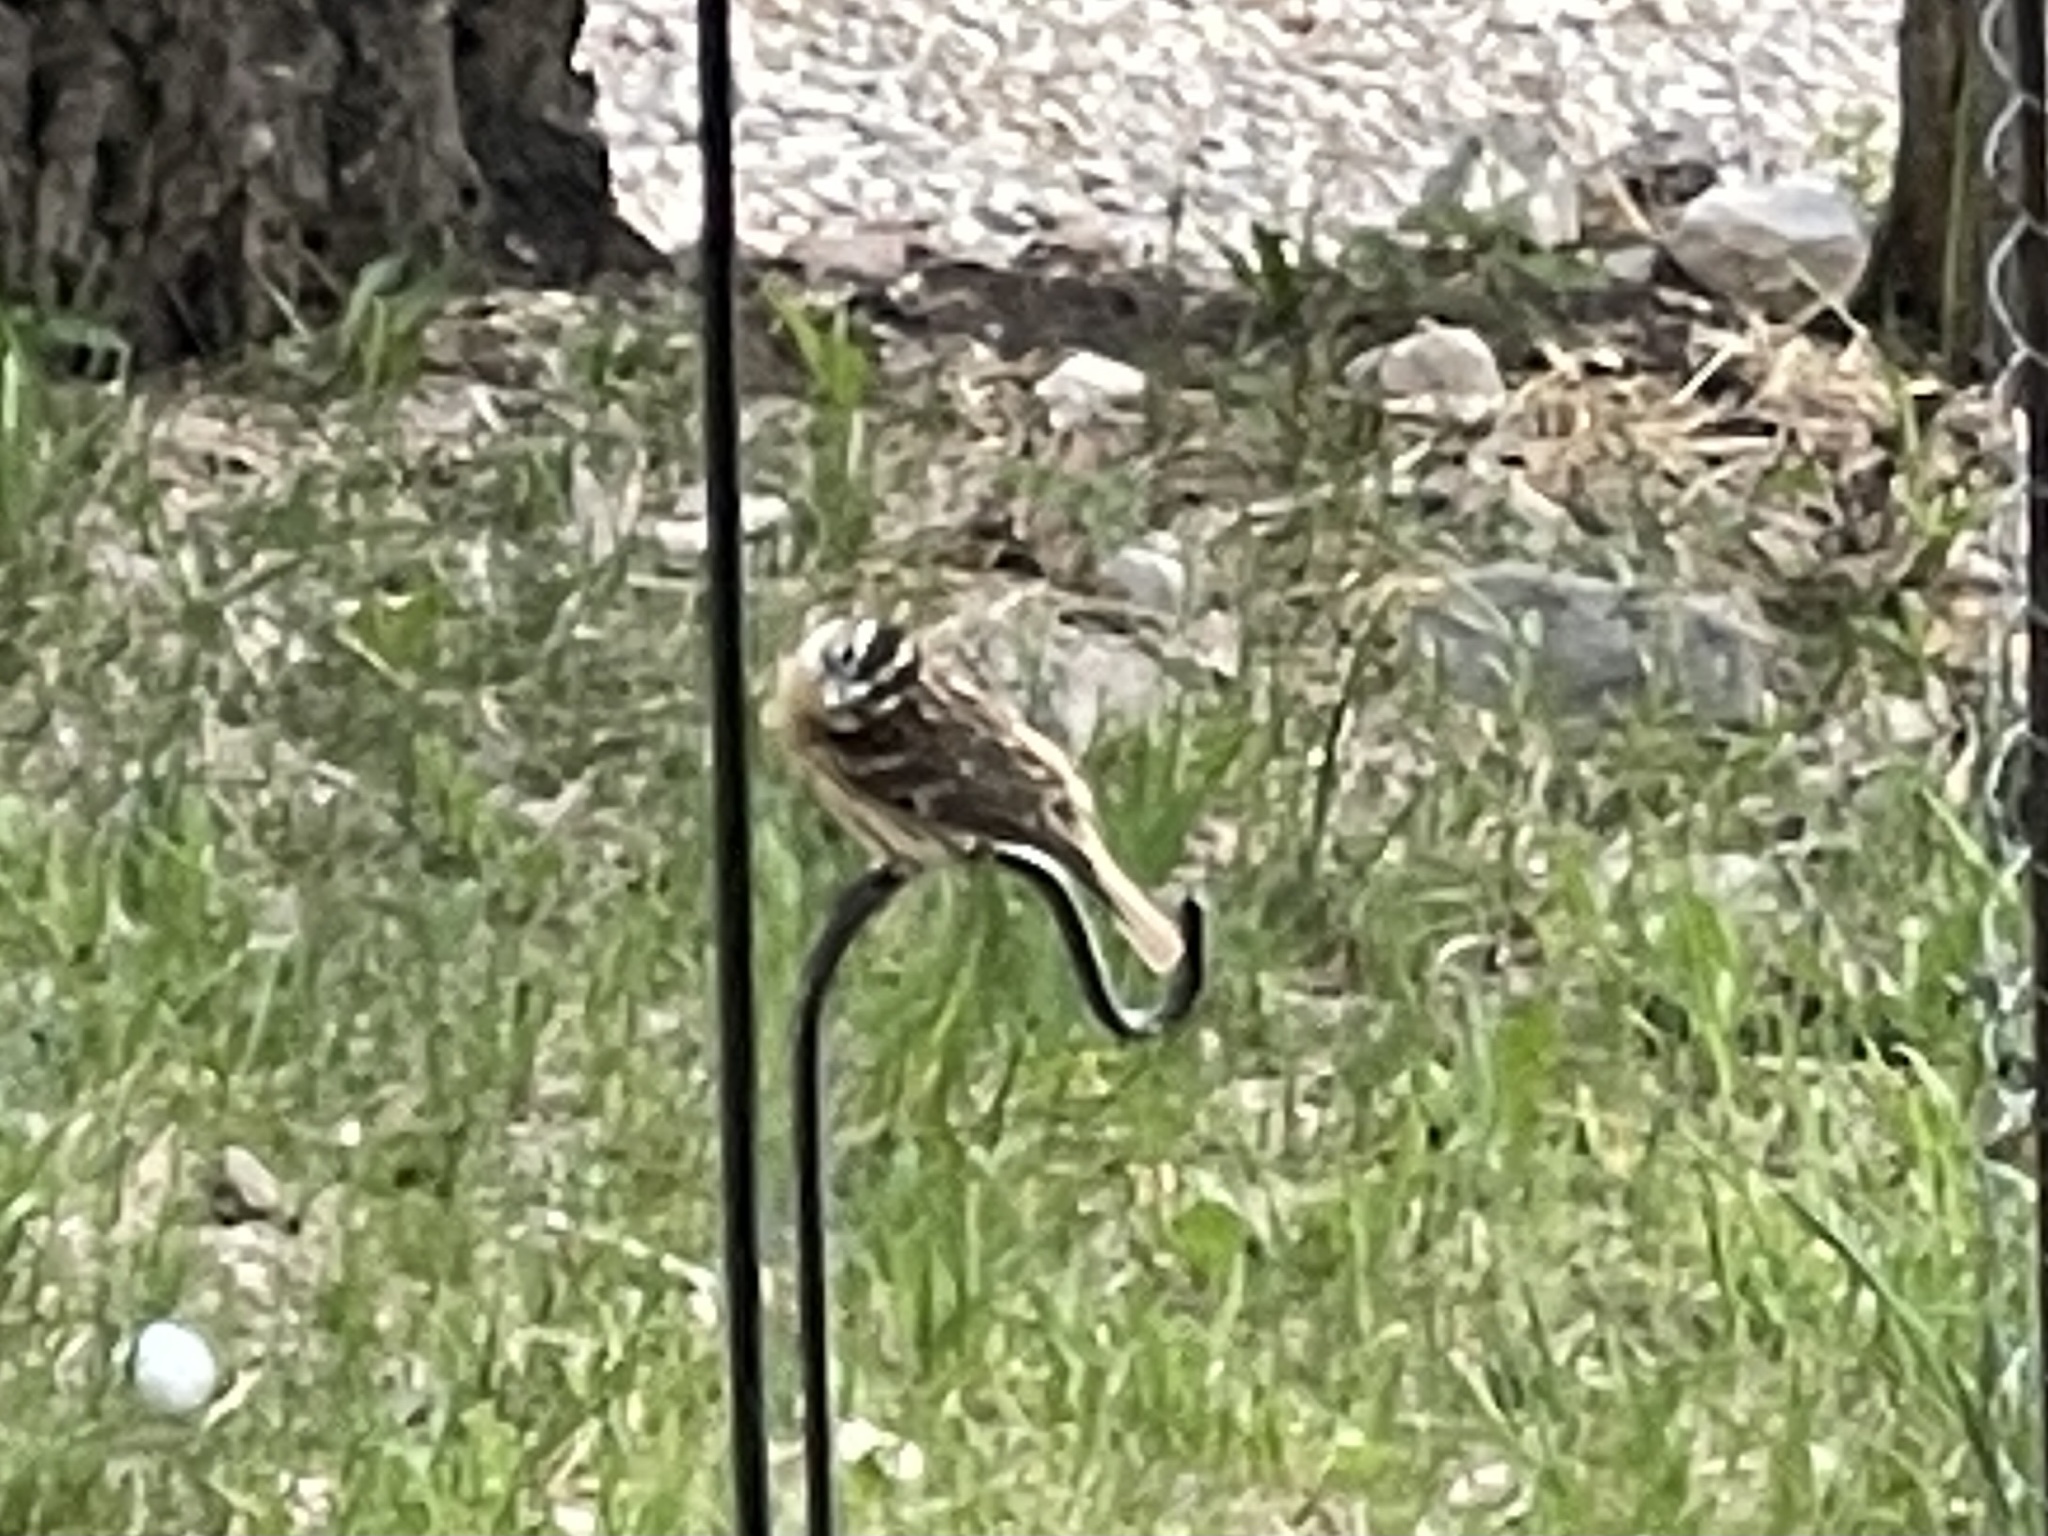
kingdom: Animalia
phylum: Chordata
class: Aves
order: Passeriformes
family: Cardinalidae
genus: Pheucticus
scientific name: Pheucticus melanocephalus
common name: Black-headed grosbeak
